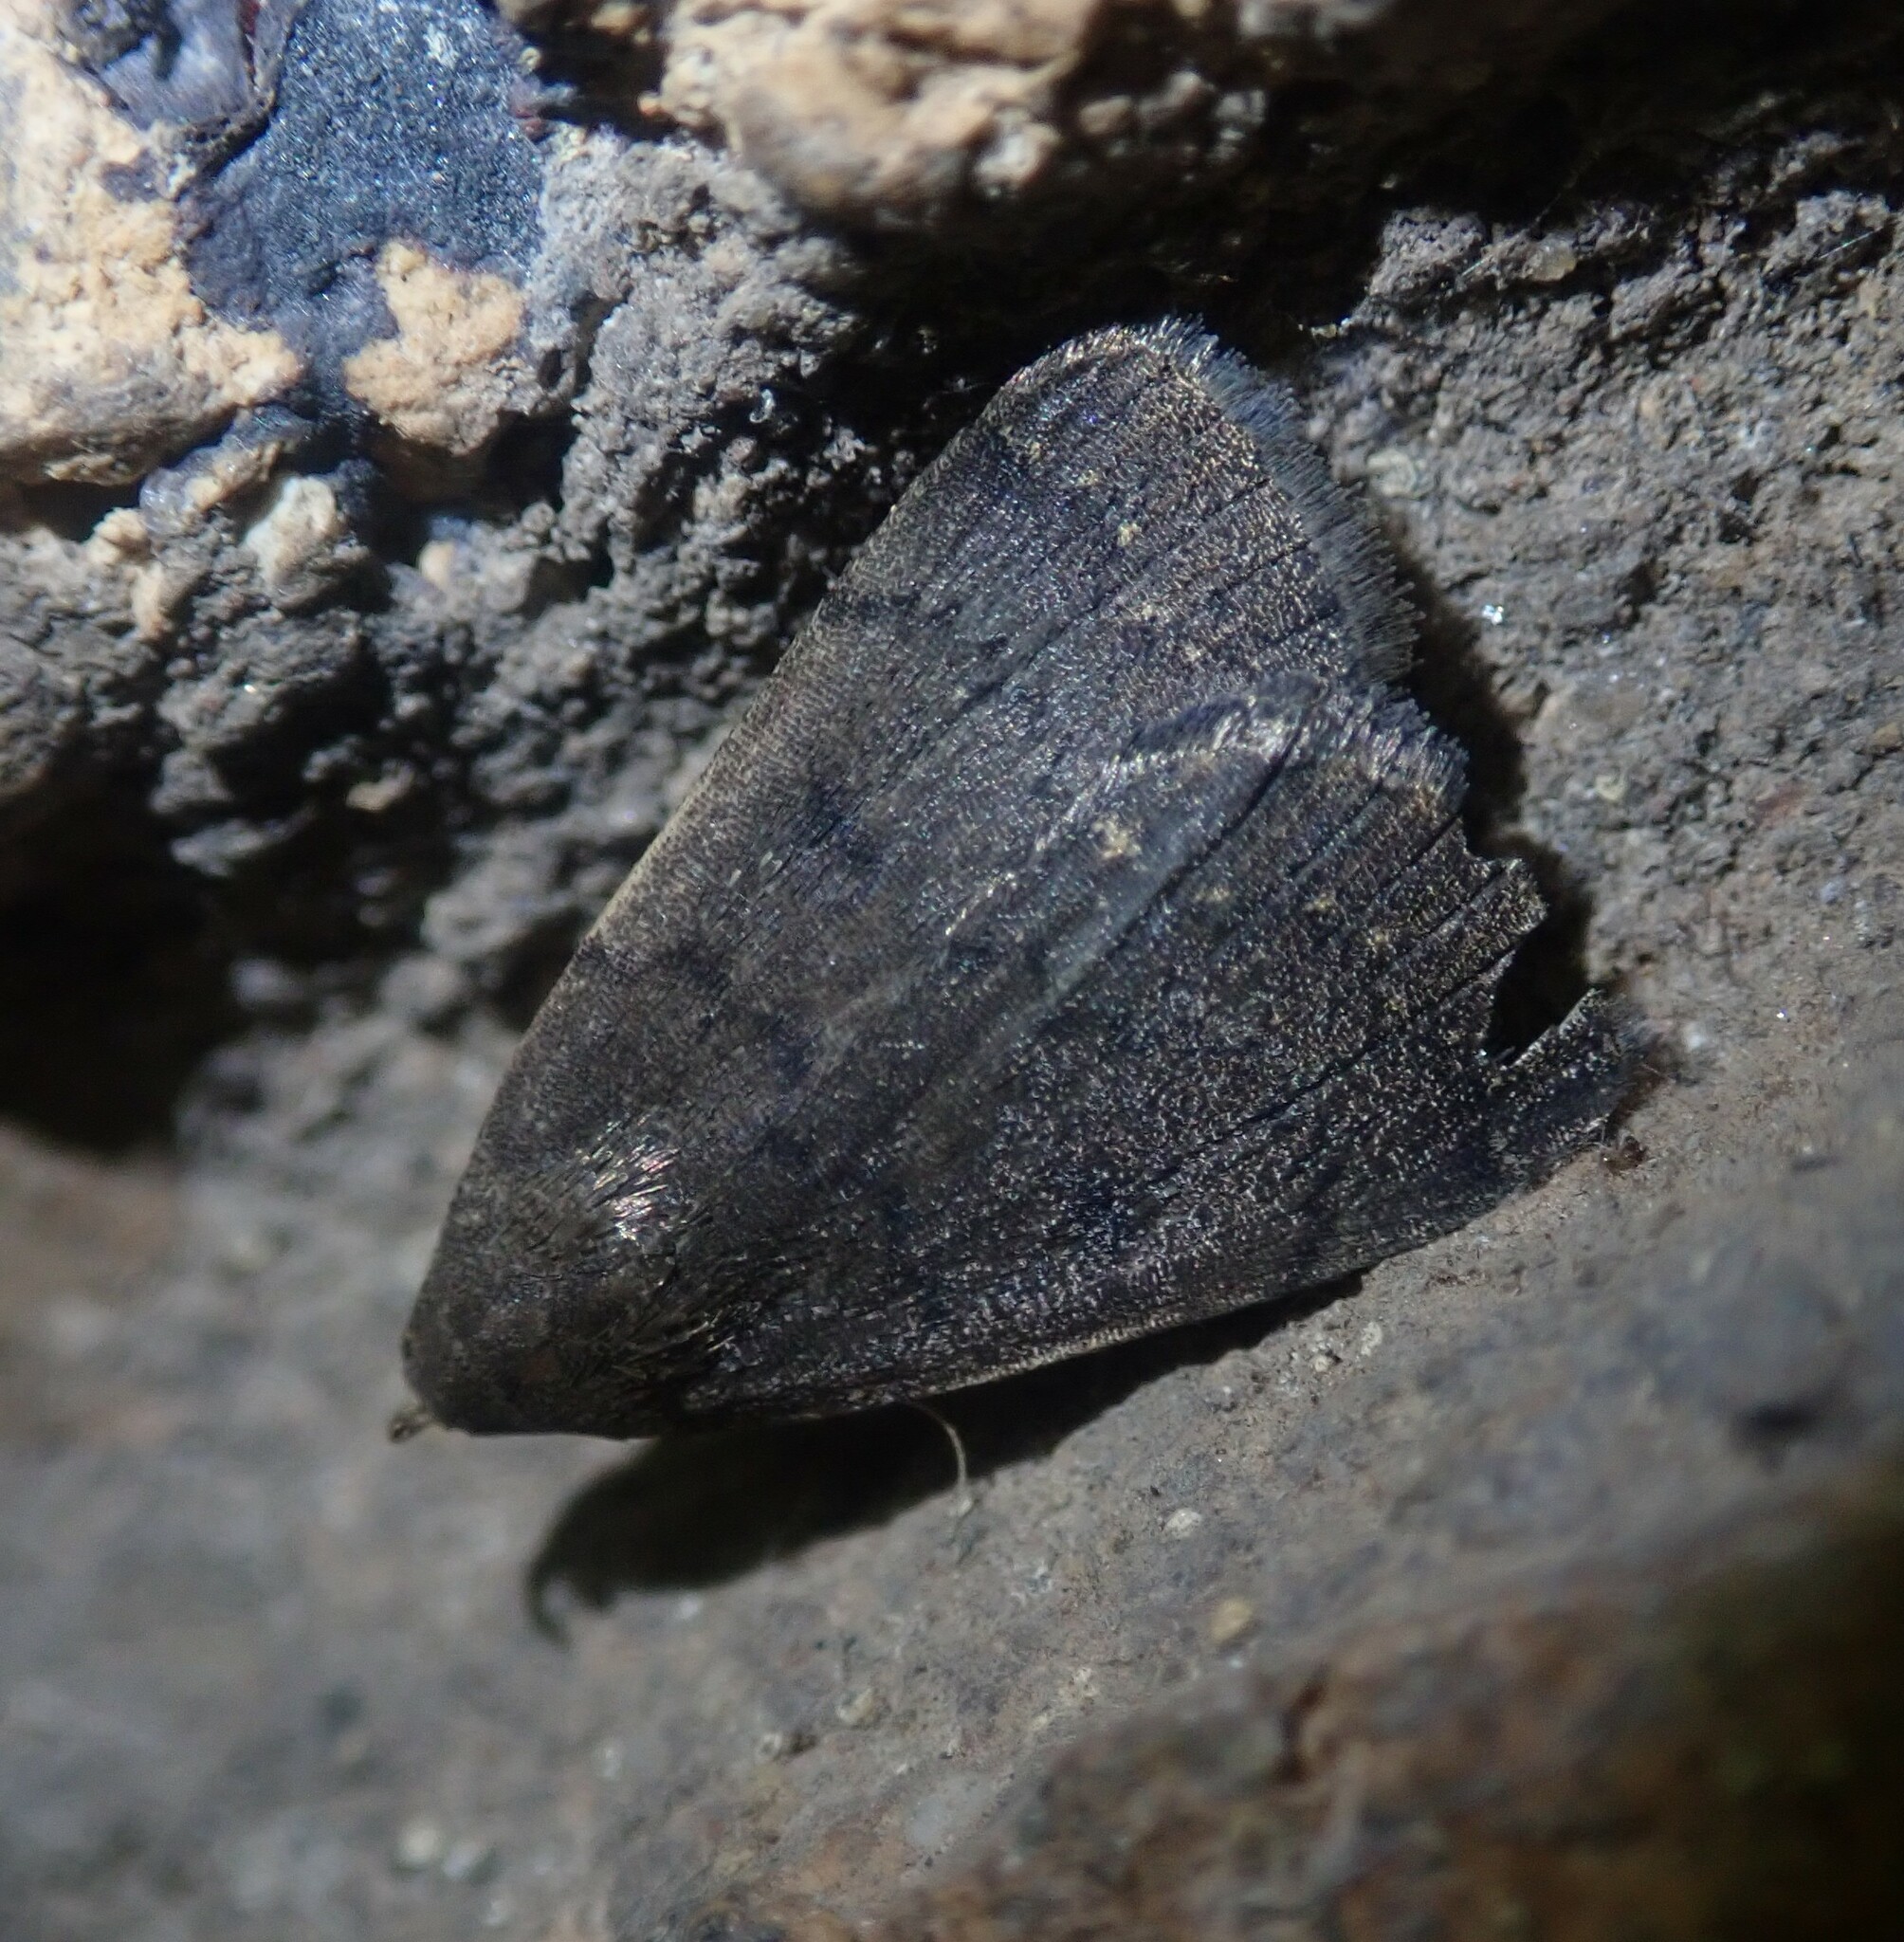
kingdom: Animalia
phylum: Arthropoda
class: Insecta
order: Lepidoptera
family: Erebidae
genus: Nodaria
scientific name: Nodaria nodosalis
